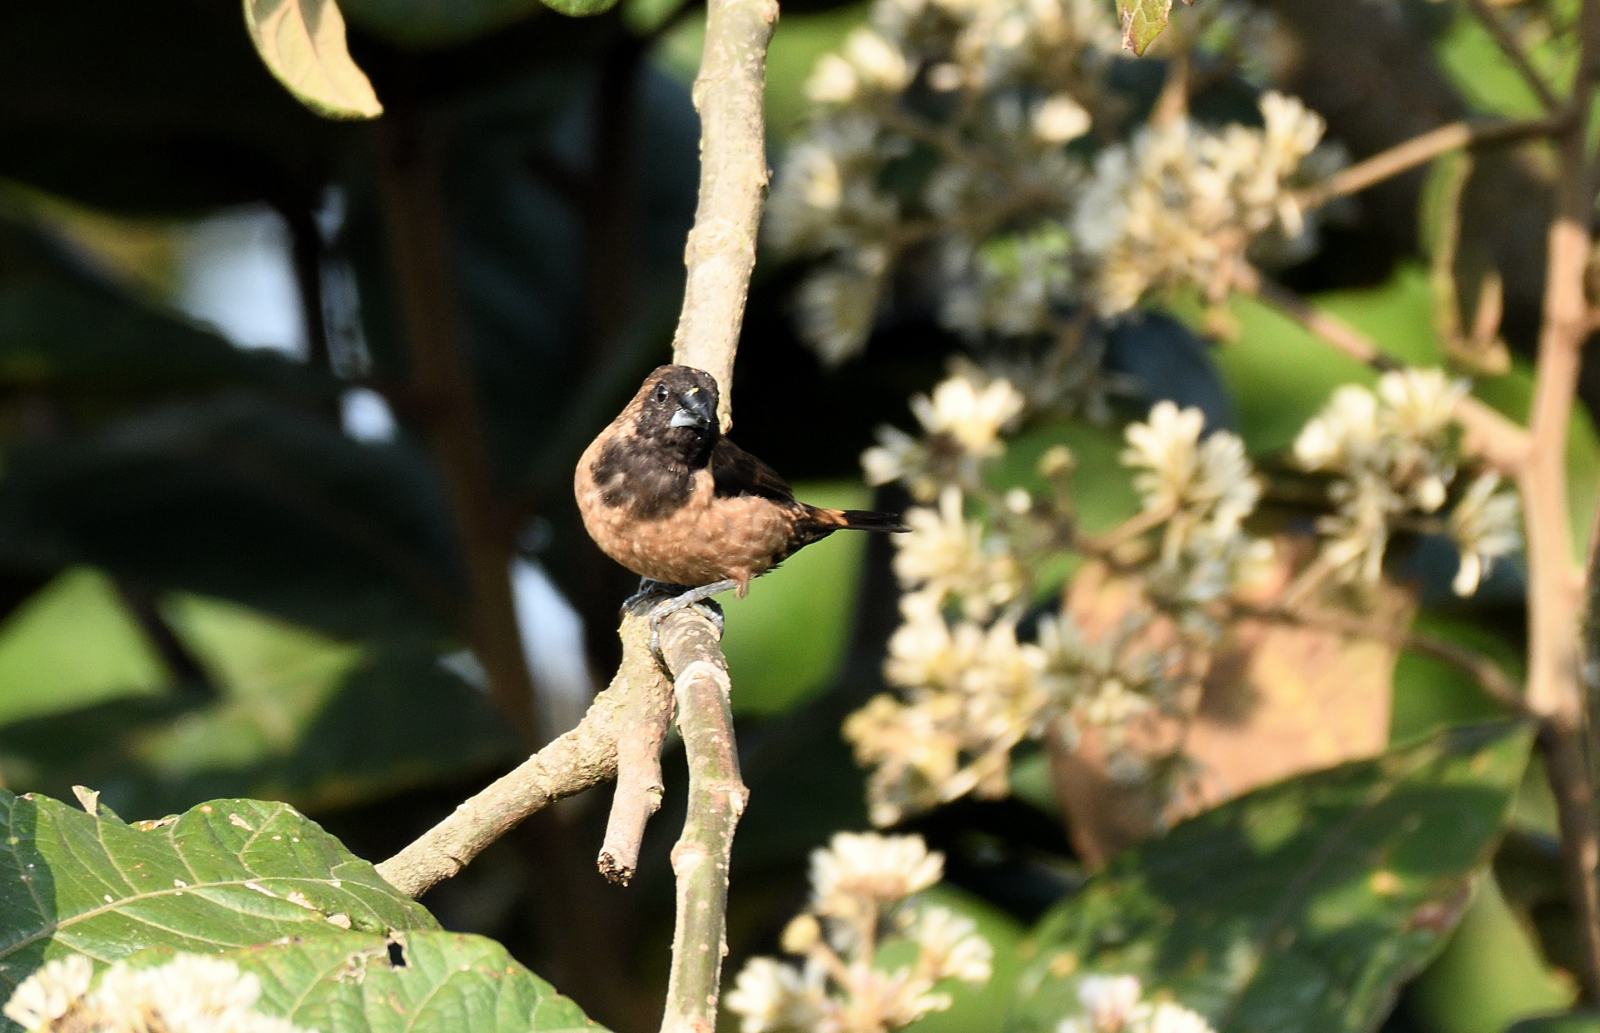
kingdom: Animalia
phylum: Chordata
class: Aves
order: Passeriformes
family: Estrildidae
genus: Lonchura
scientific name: Lonchura kelaarti
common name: Black-throated munia
